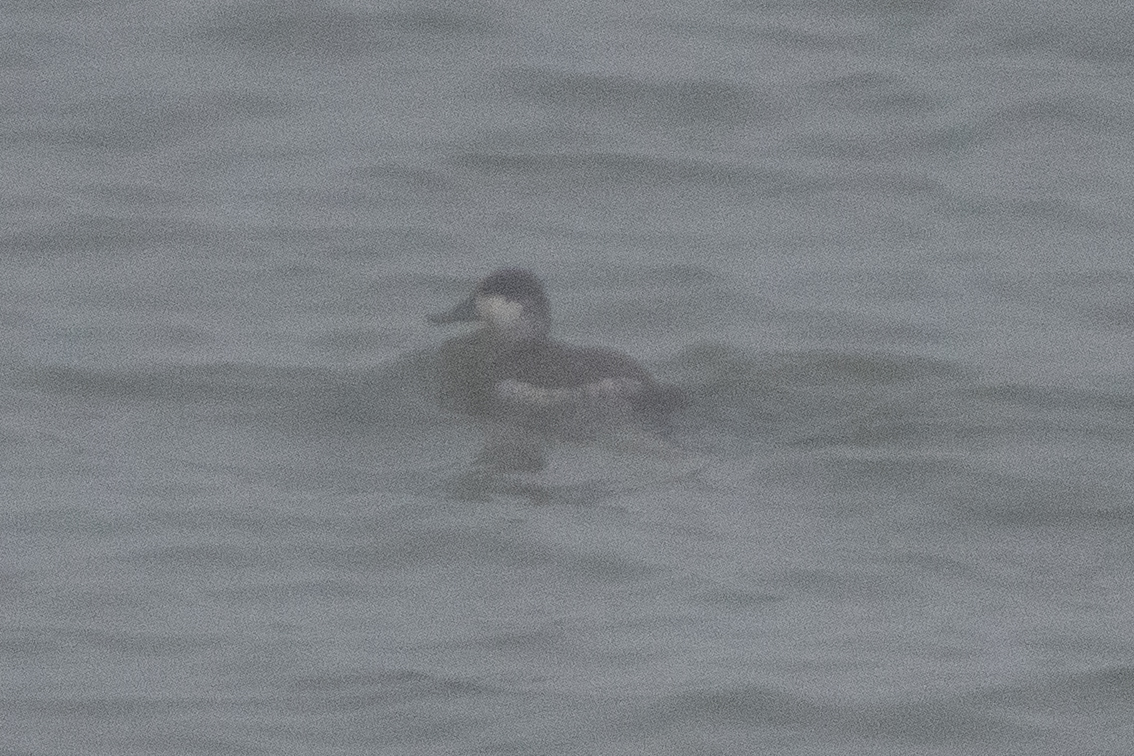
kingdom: Animalia
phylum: Chordata
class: Aves
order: Anseriformes
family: Anatidae
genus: Oxyura
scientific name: Oxyura jamaicensis
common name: Ruddy duck
